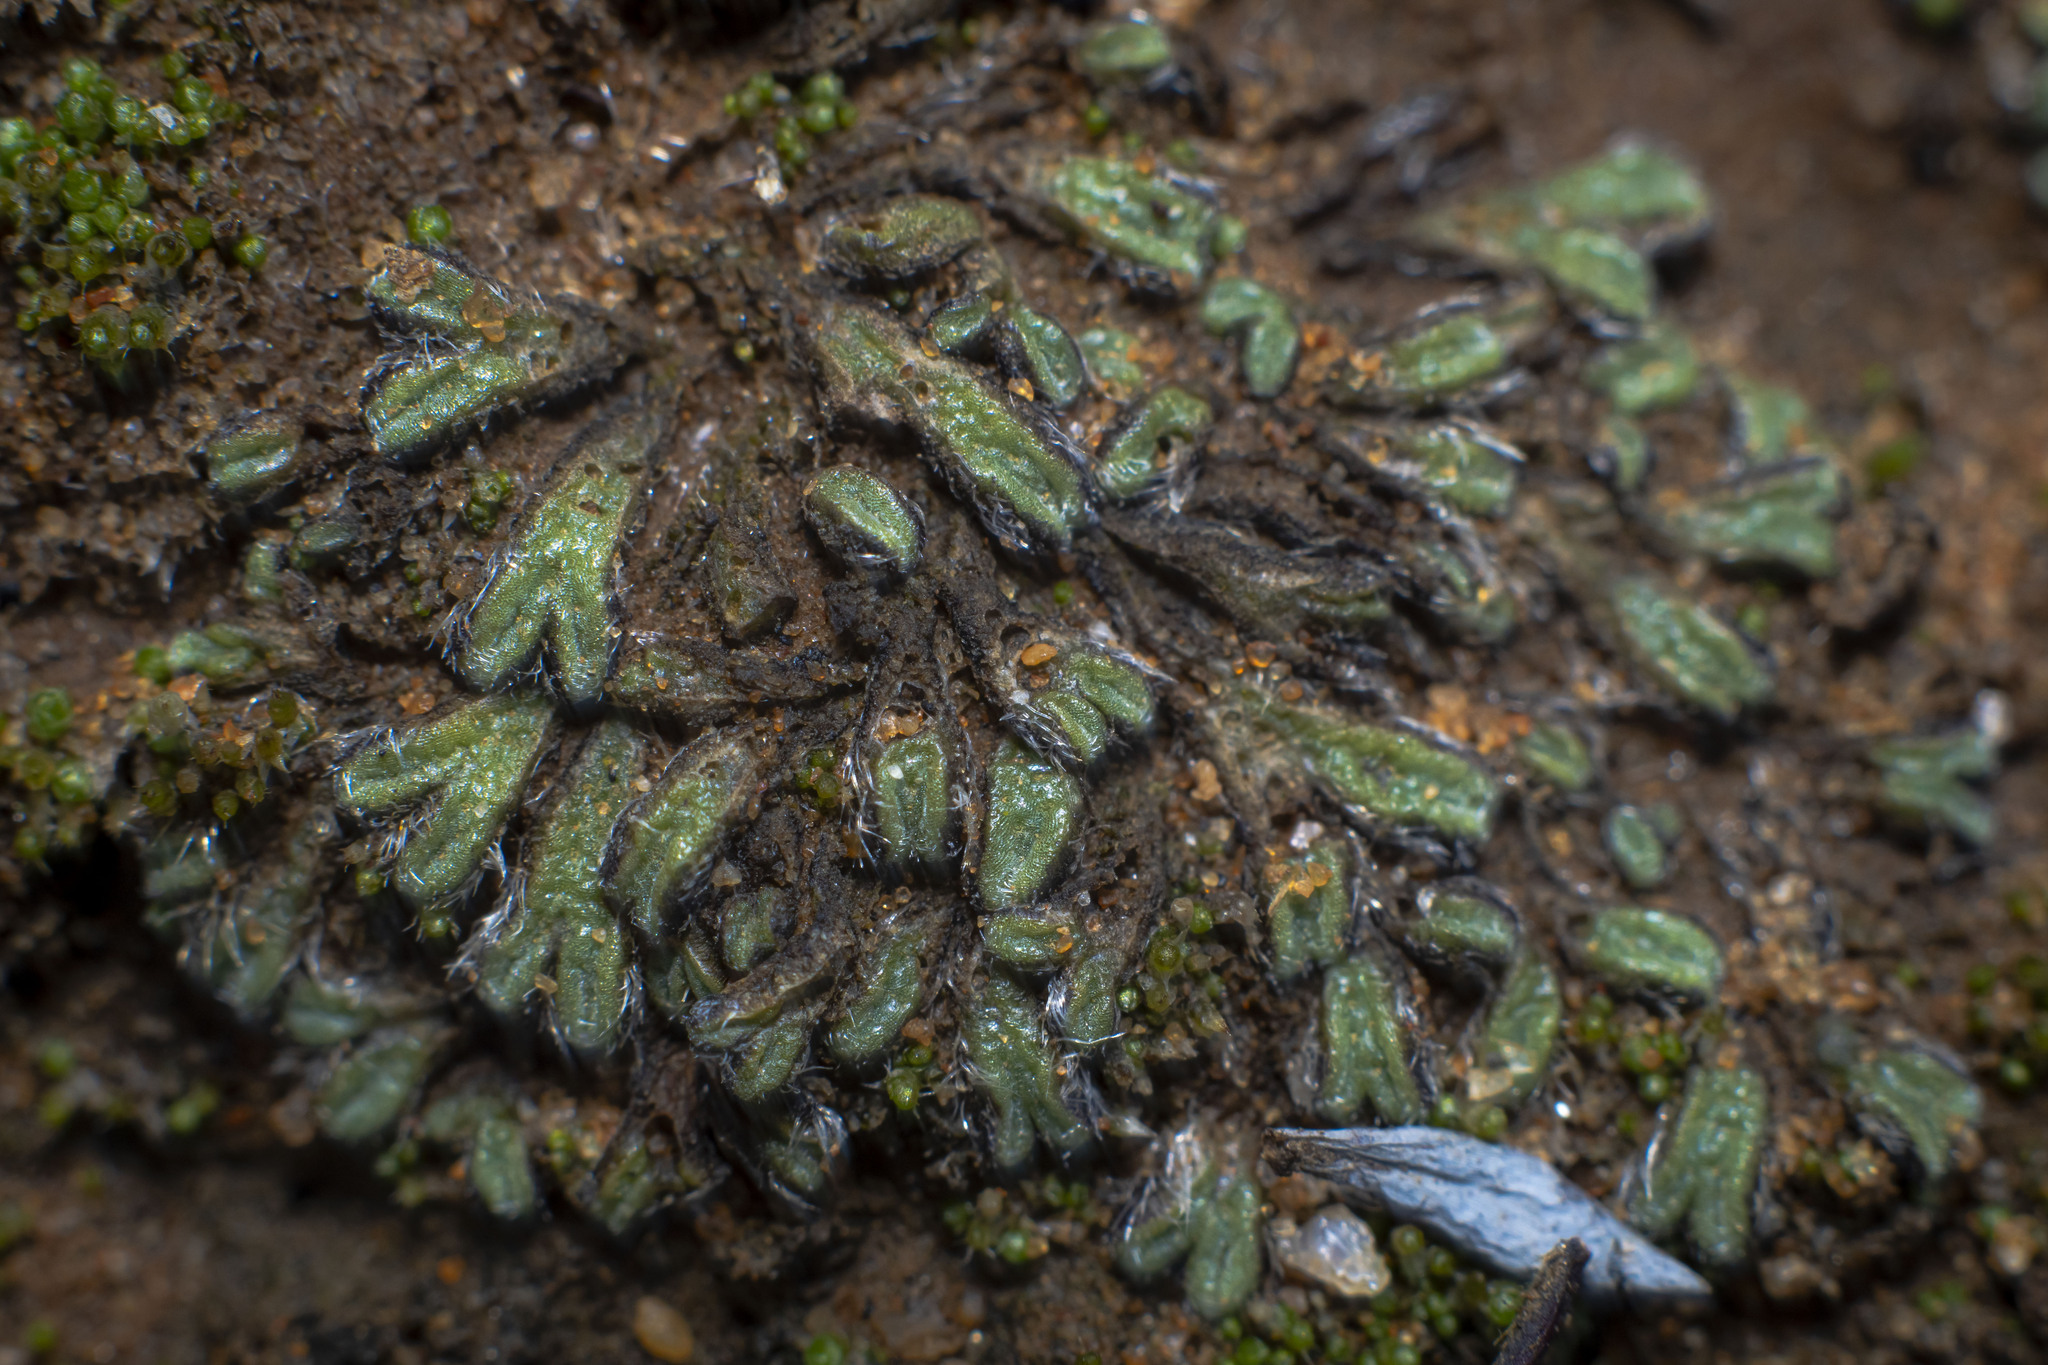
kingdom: Plantae
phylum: Marchantiophyta
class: Marchantiopsida
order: Marchantiales
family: Ricciaceae
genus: Riccia
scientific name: Riccia trichocarpa
